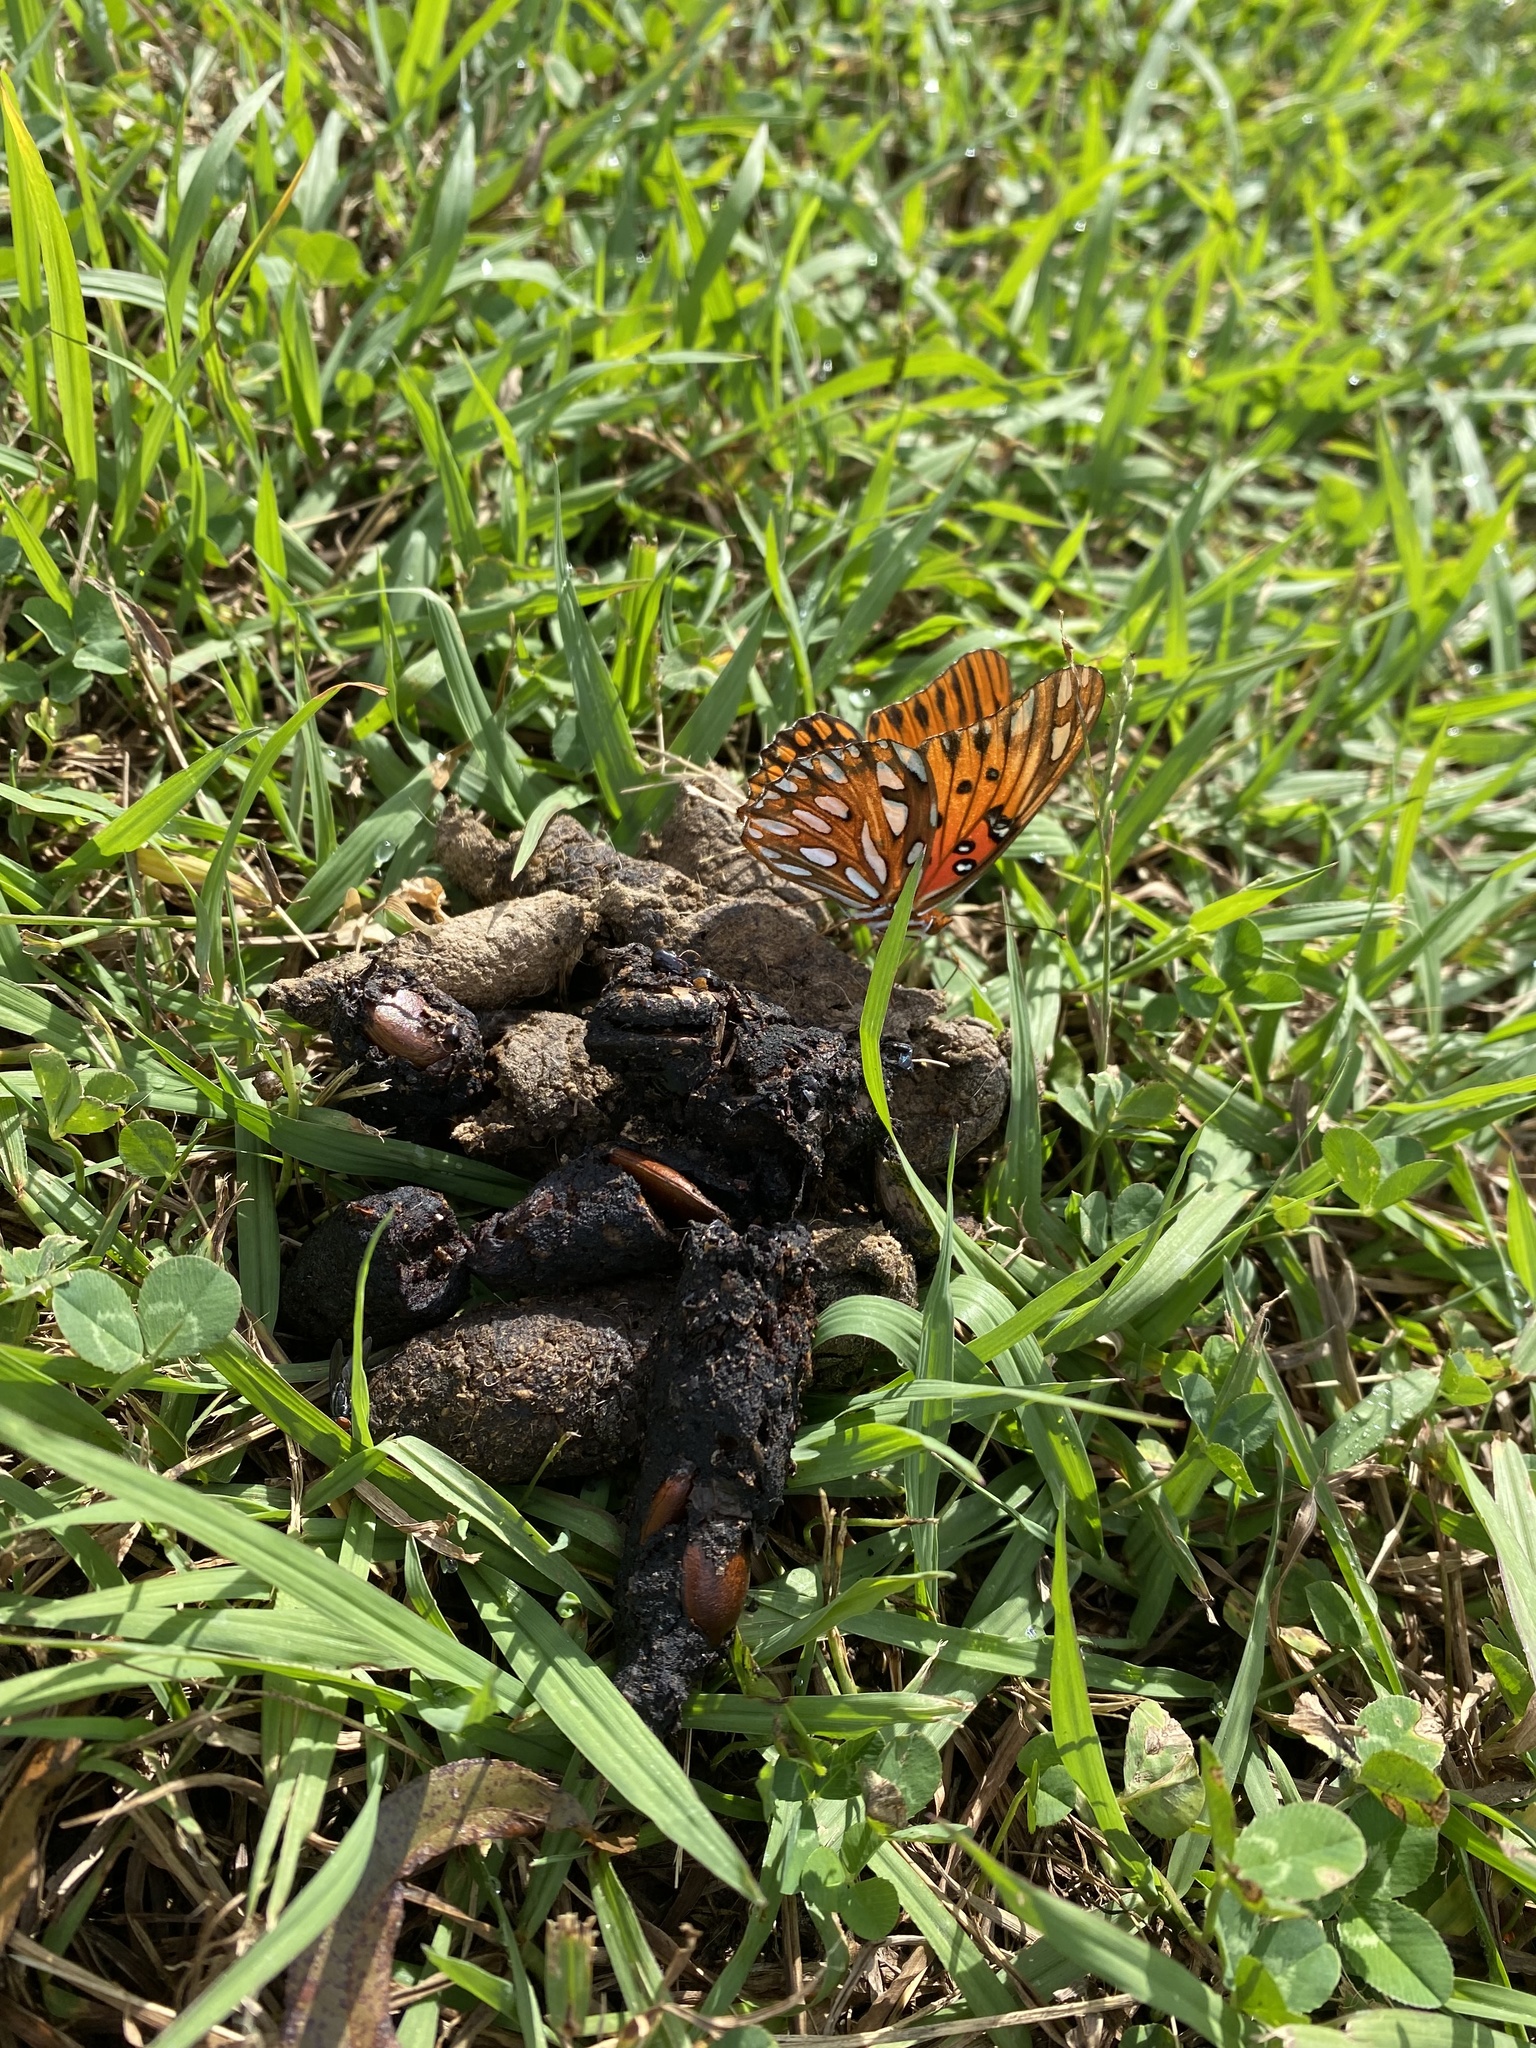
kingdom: Animalia
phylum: Arthropoda
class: Insecta
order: Lepidoptera
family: Nymphalidae
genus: Dione
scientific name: Dione vanillae
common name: Gulf fritillary
